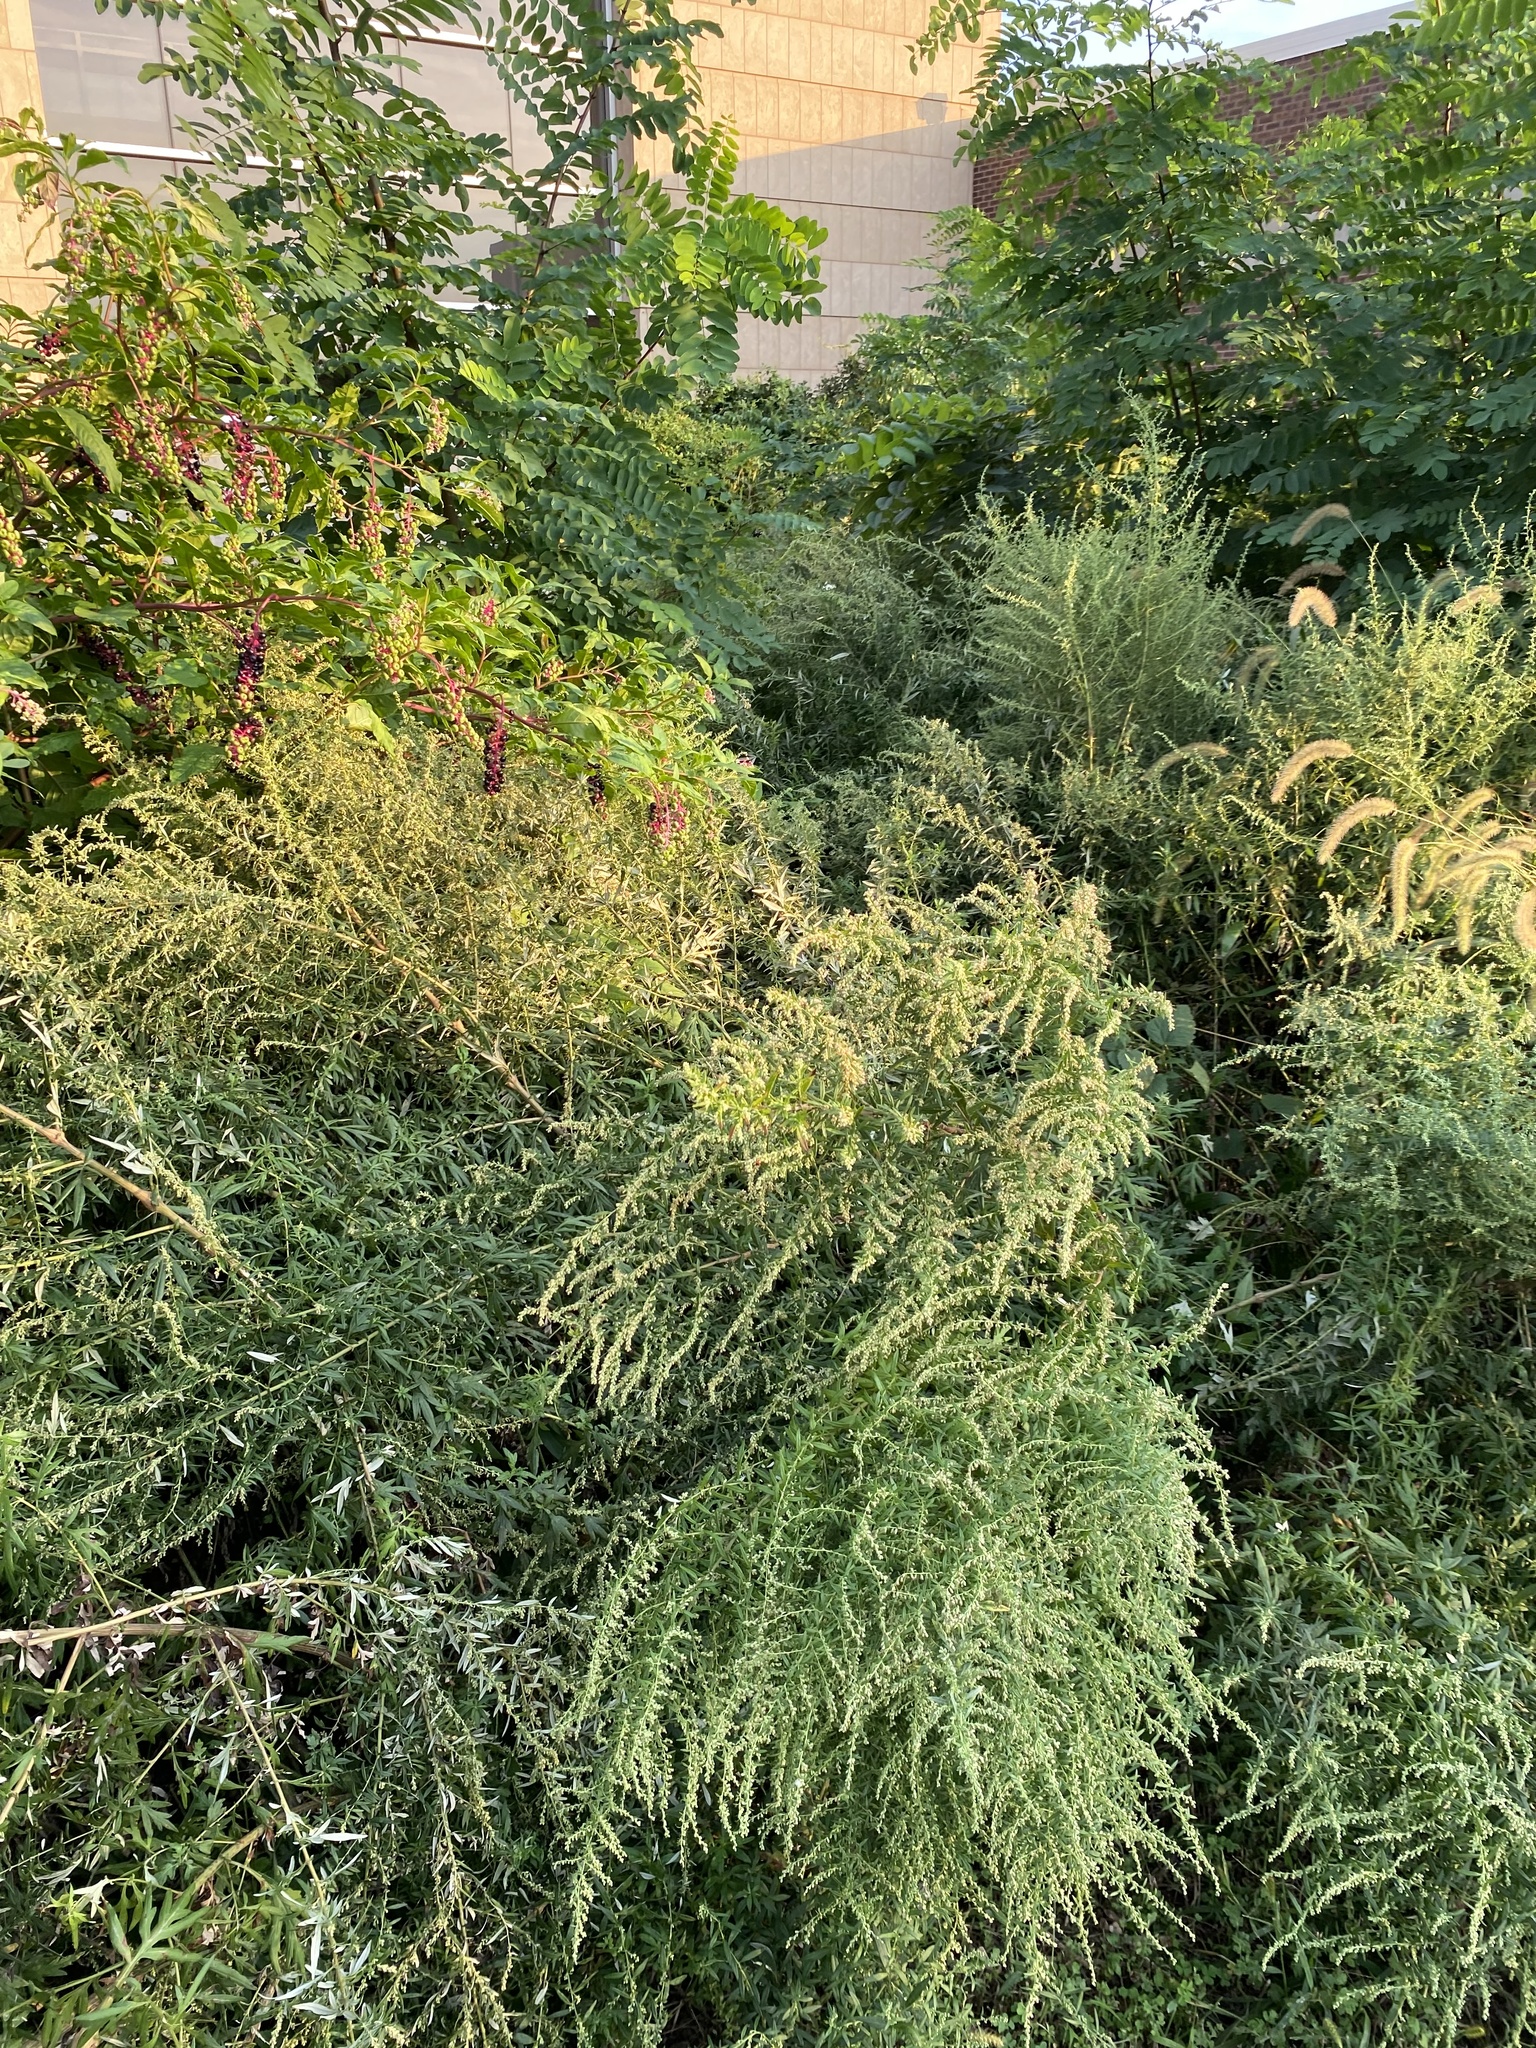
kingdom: Plantae
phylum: Tracheophyta
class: Magnoliopsida
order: Asterales
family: Asteraceae
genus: Artemisia
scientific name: Artemisia vulgaris
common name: Mugwort
